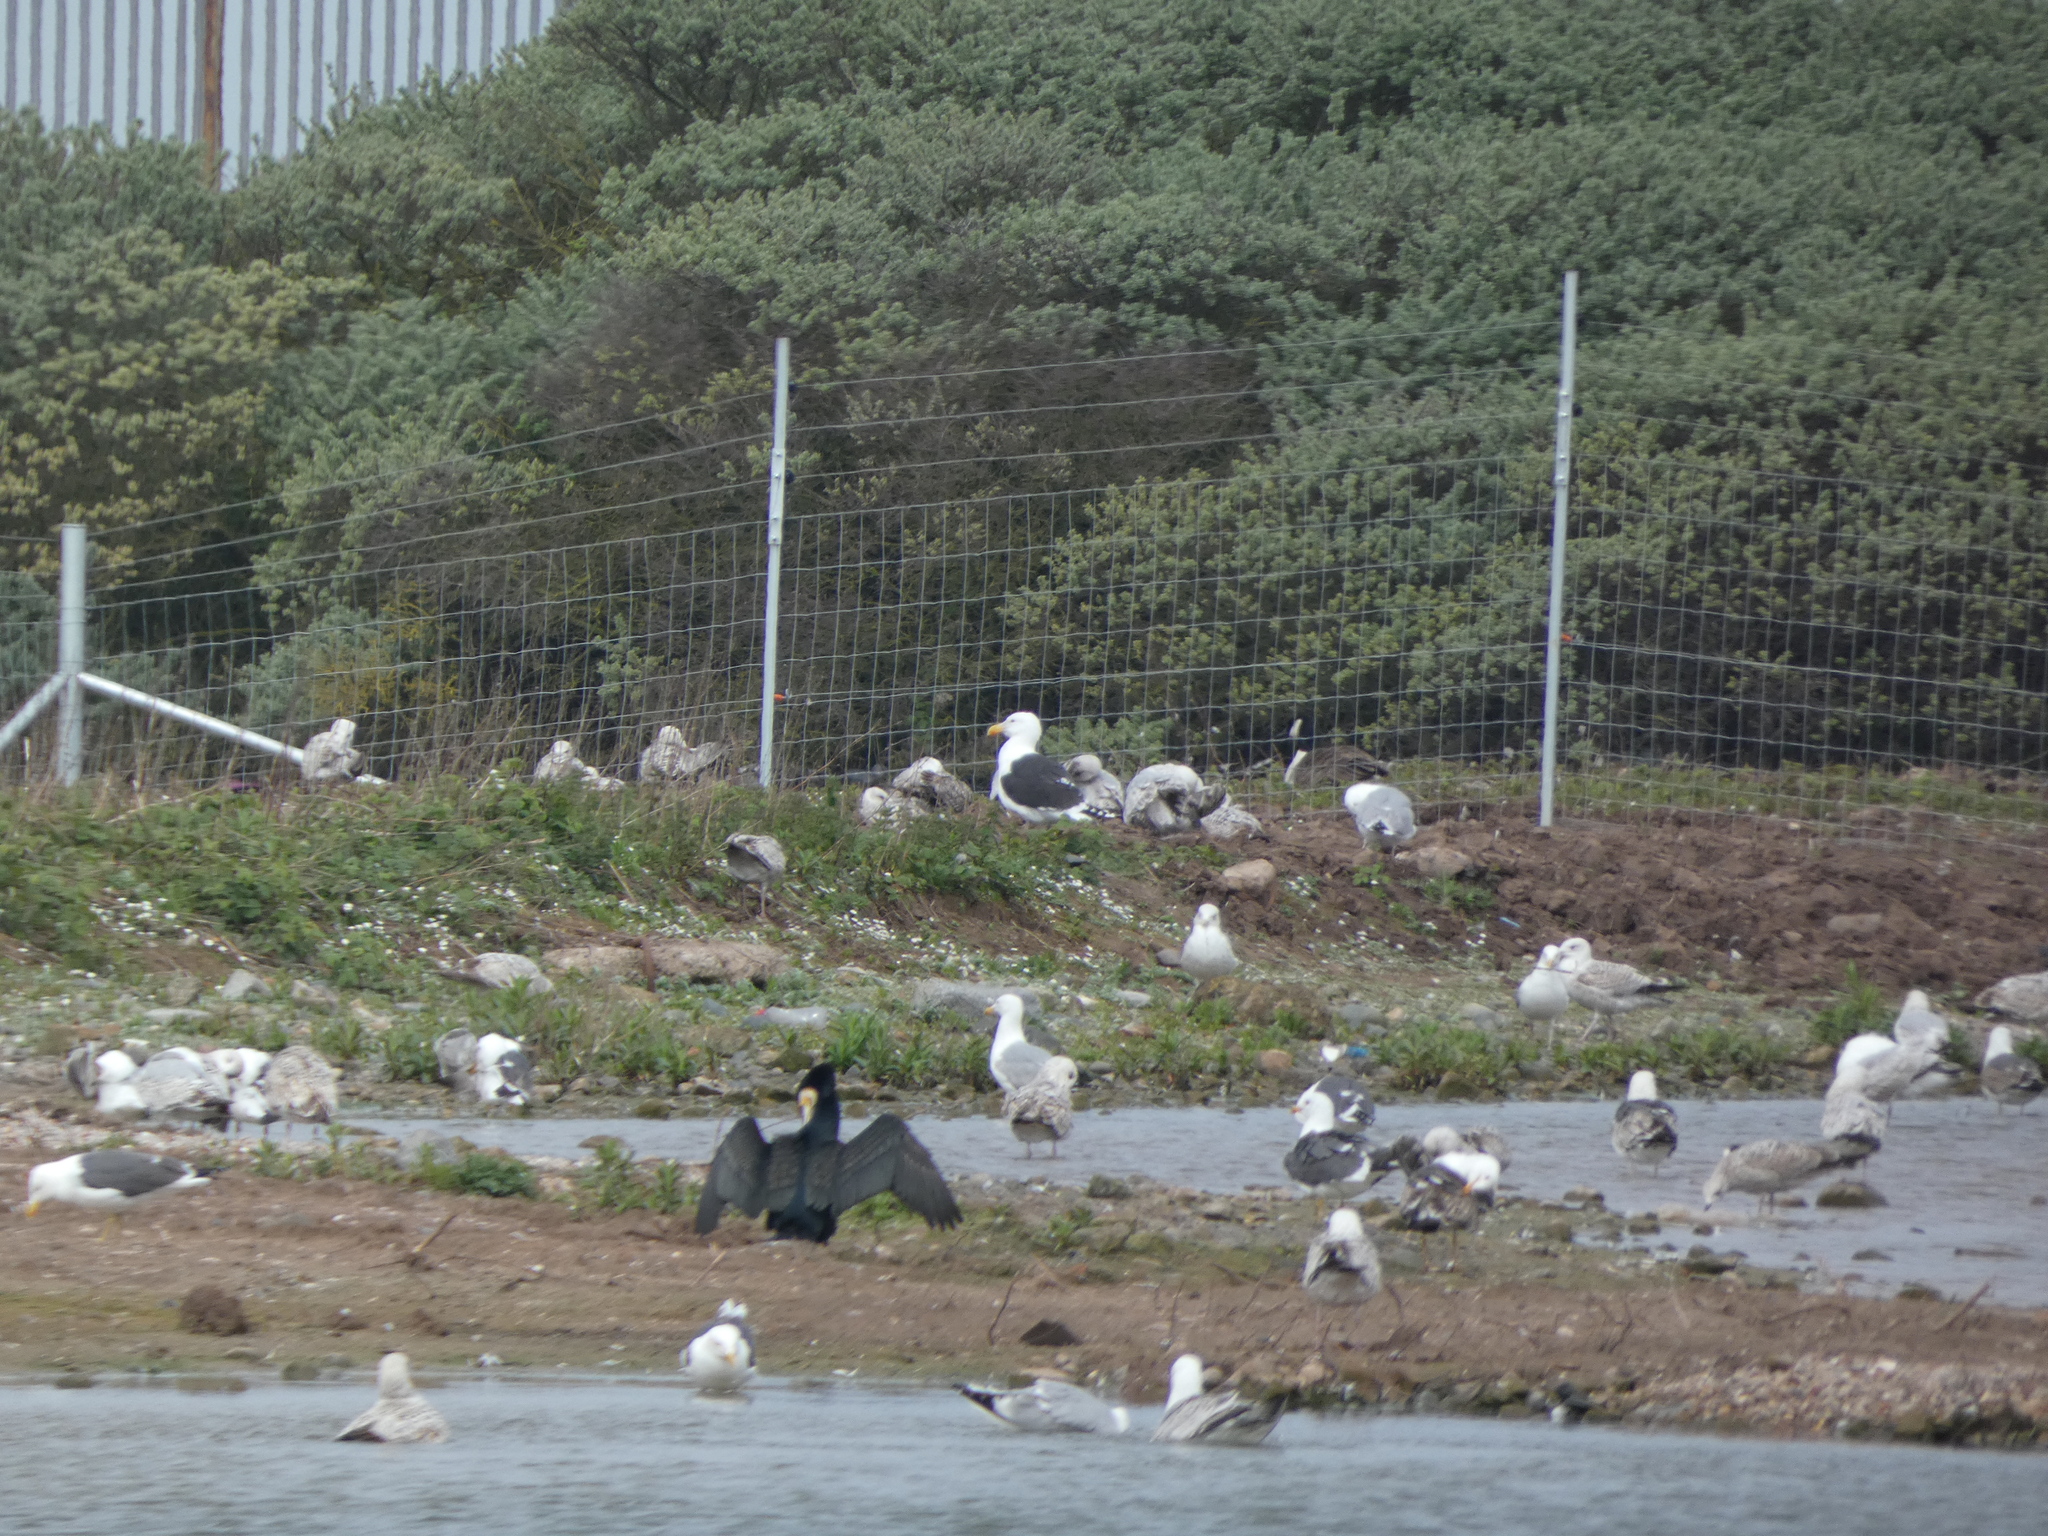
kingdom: Animalia
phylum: Chordata
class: Aves
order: Charadriiformes
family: Laridae
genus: Larus
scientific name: Larus marinus
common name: Great black-backed gull
